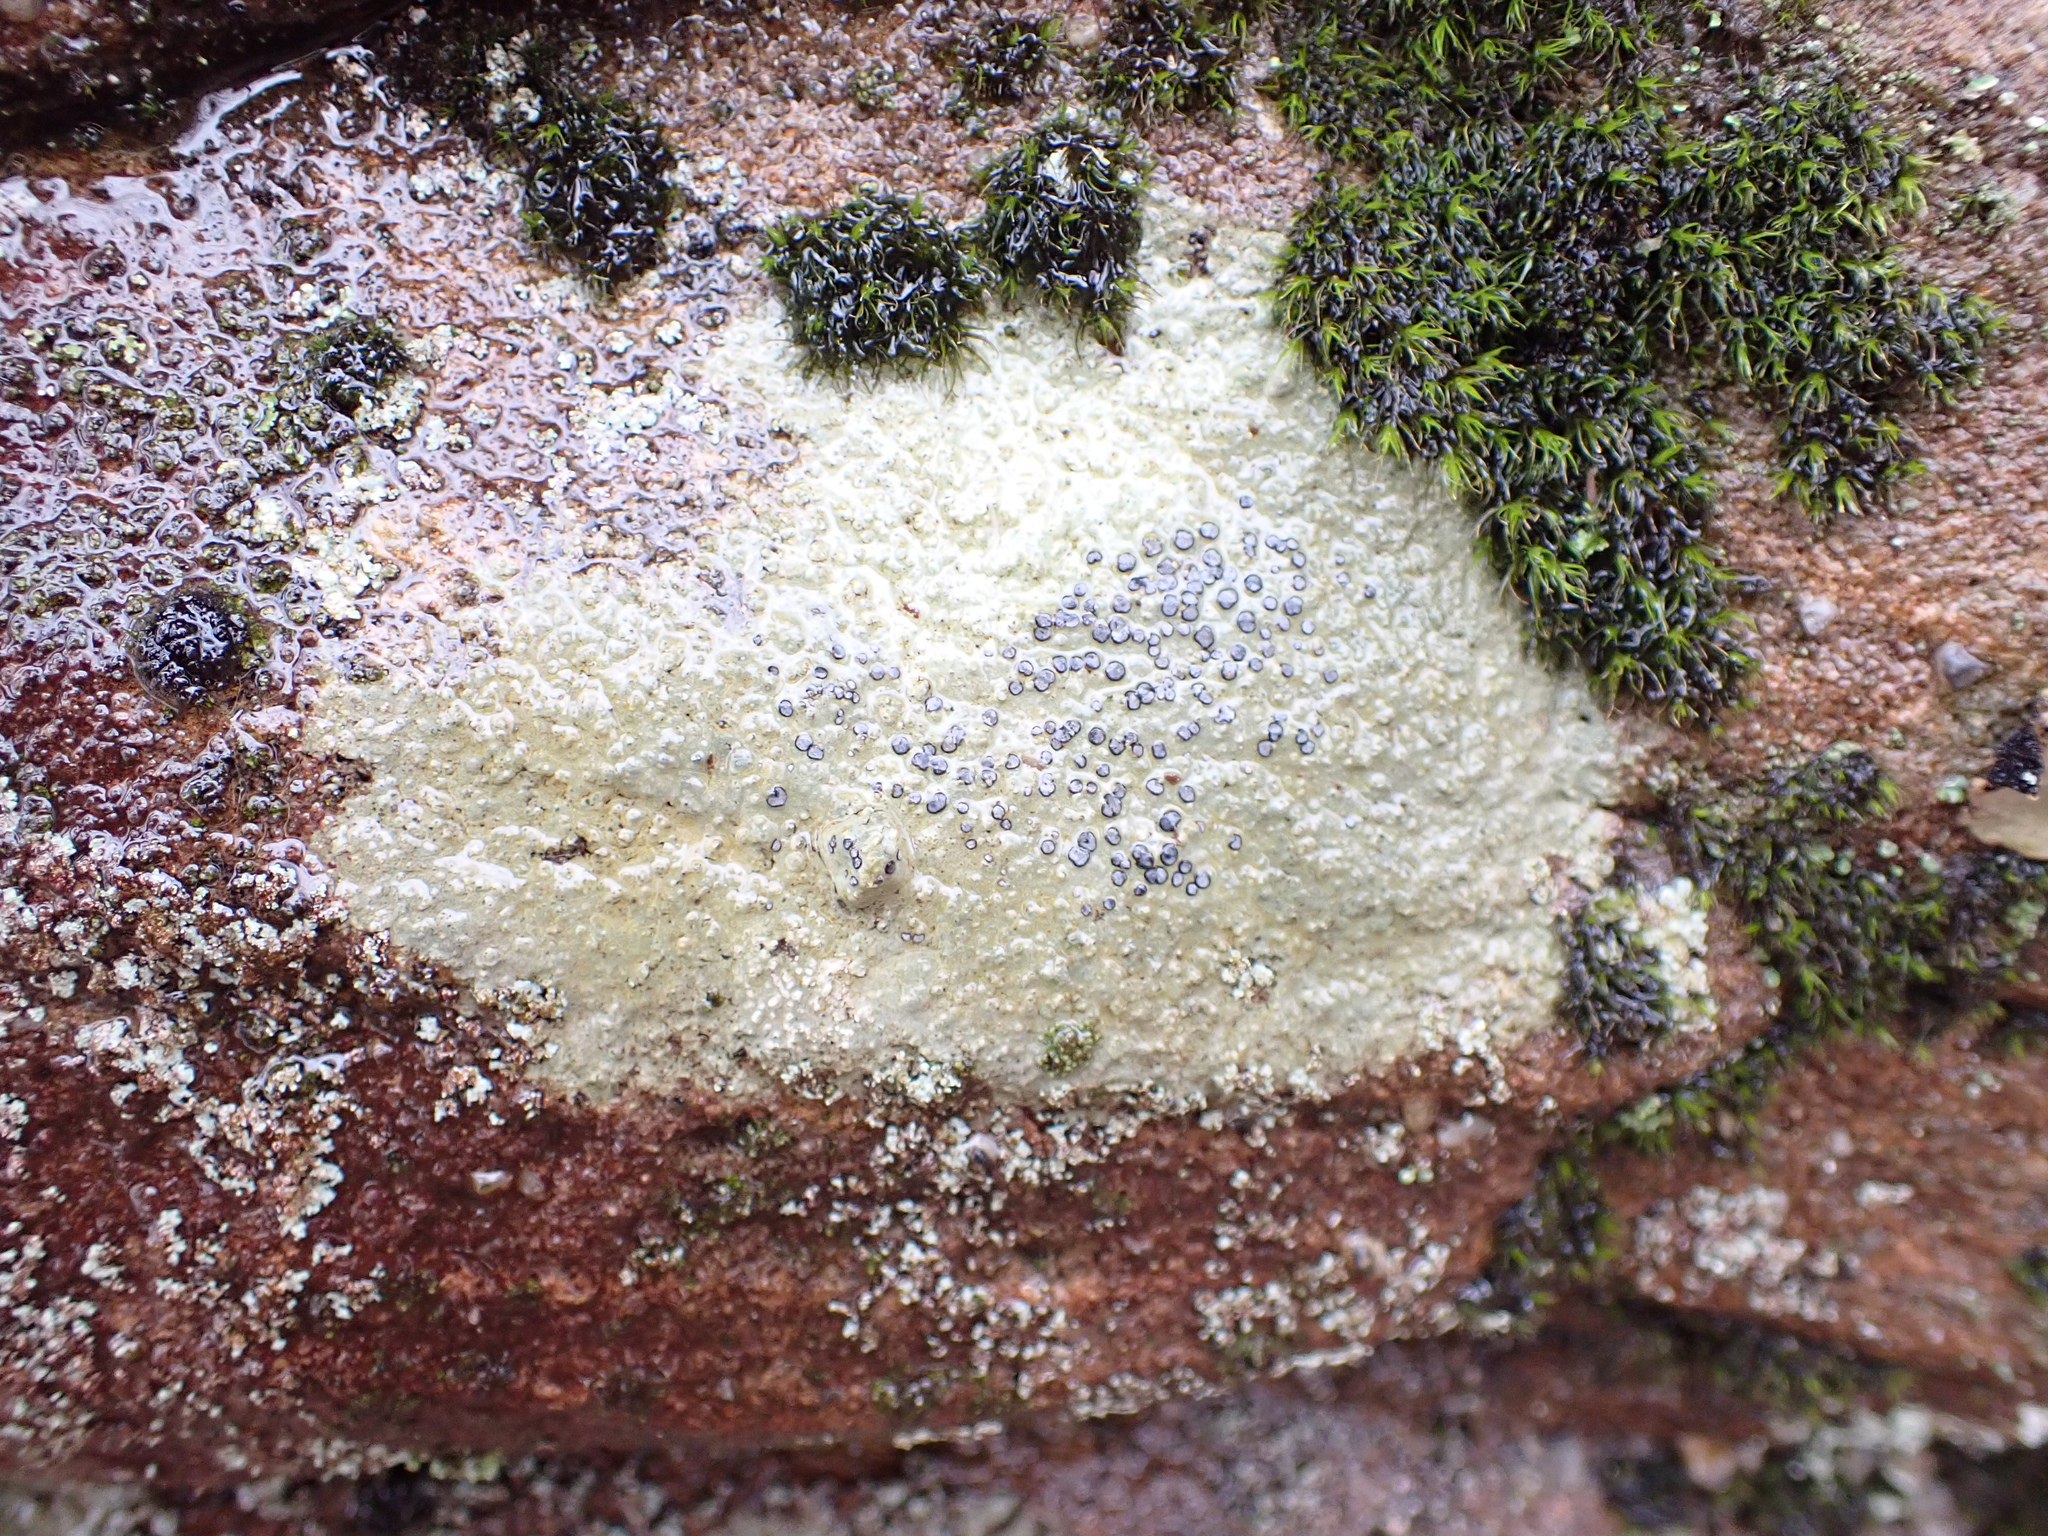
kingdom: Fungi
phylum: Ascomycota
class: Lecanoromycetes
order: Lecideales
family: Lecideaceae
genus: Porpidia
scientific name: Porpidia albocaerulescens
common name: Smokey-eyed boulder lichen
